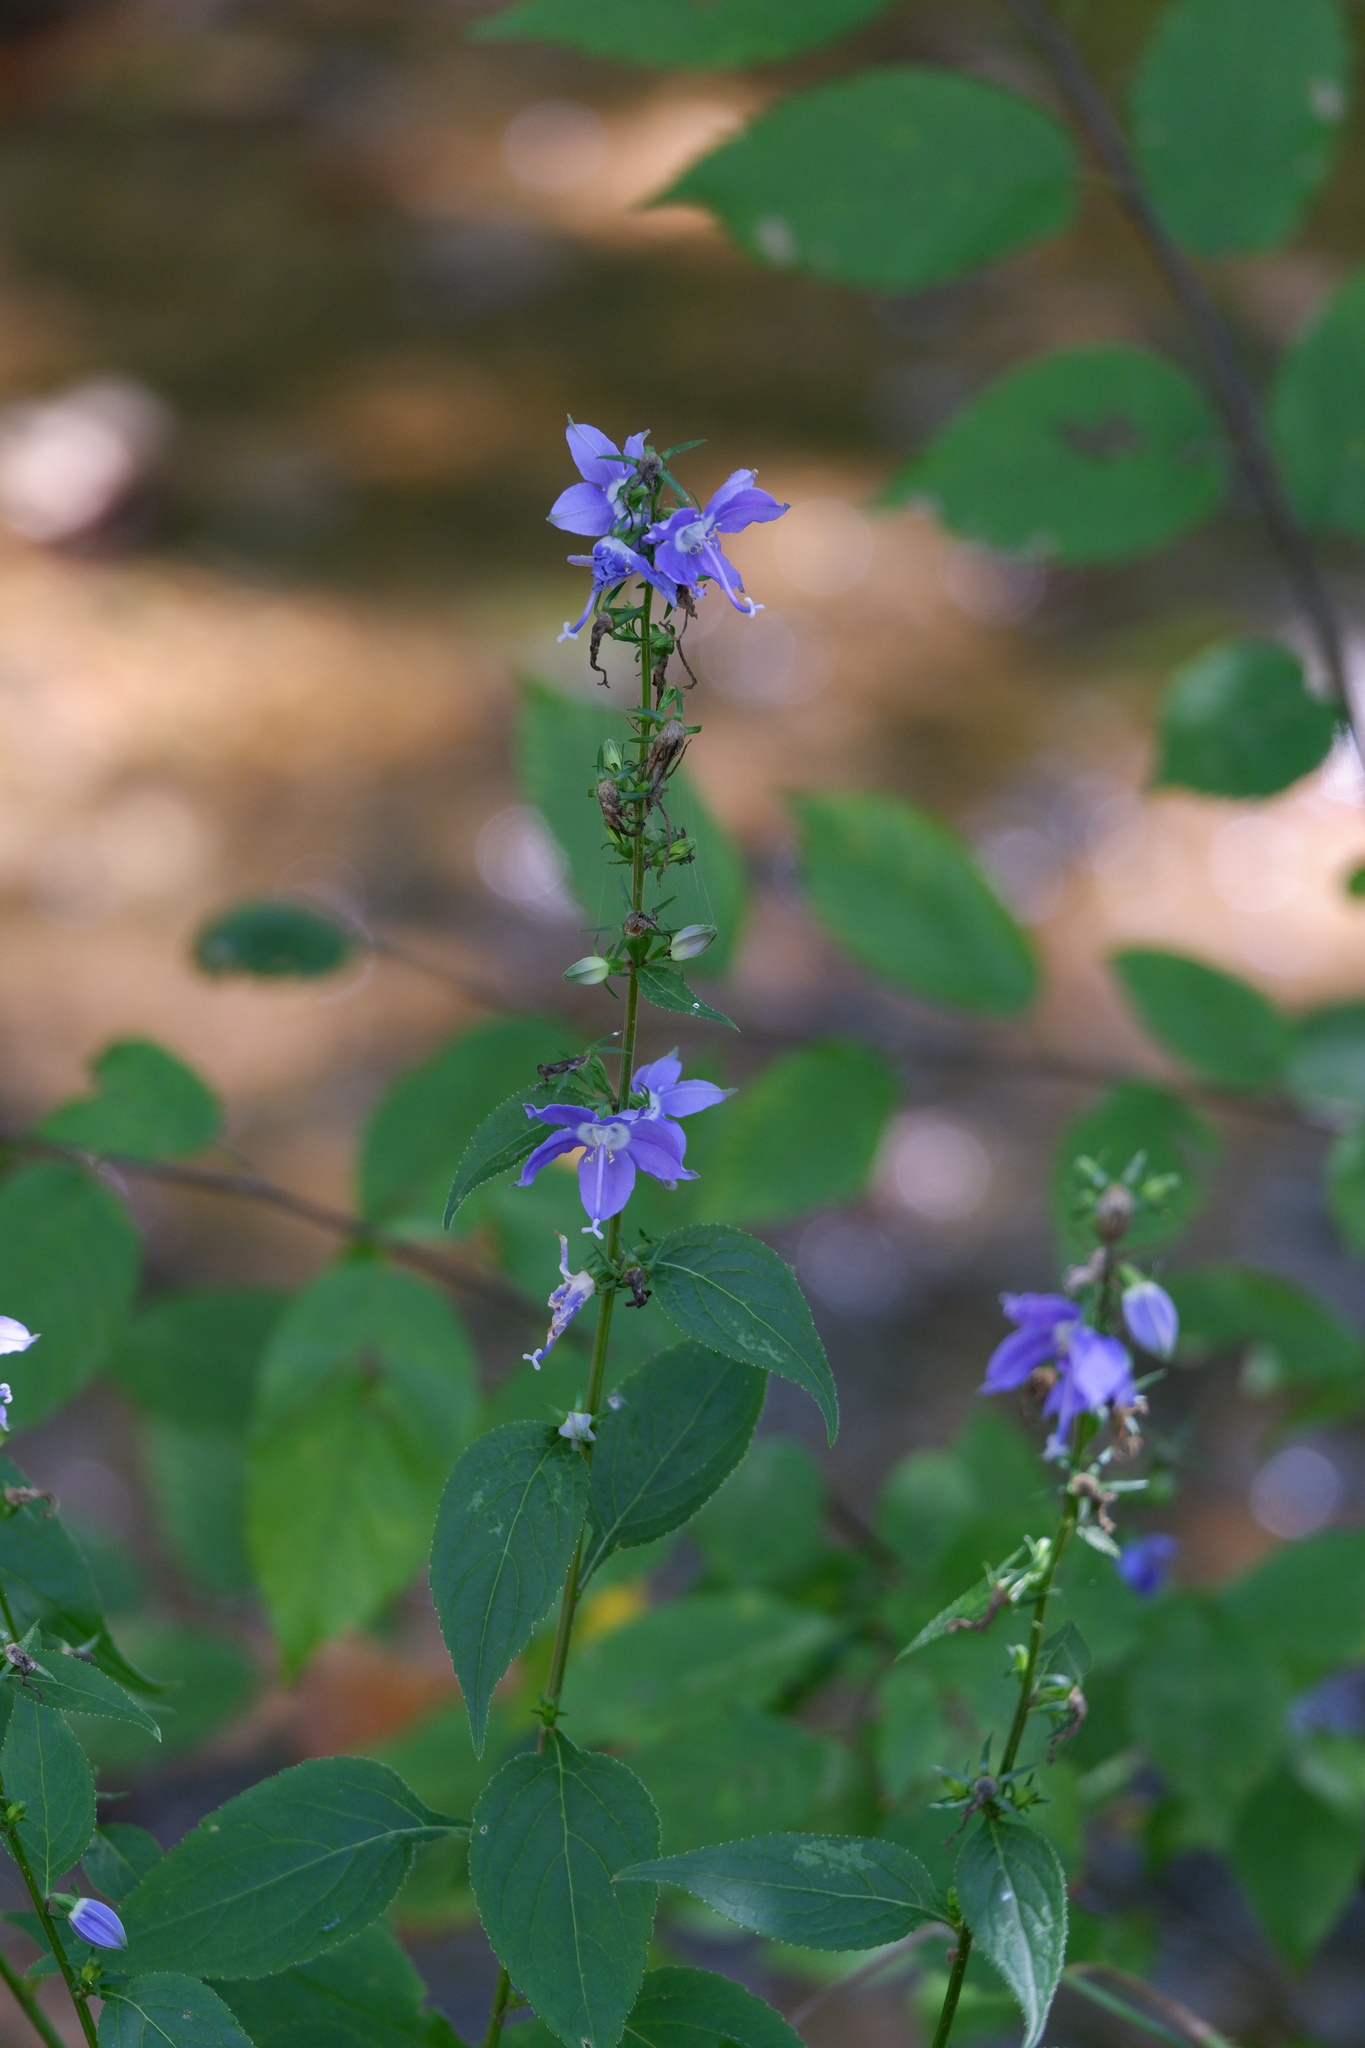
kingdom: Plantae
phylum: Tracheophyta
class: Magnoliopsida
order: Asterales
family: Campanulaceae
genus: Campanulastrum
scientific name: Campanulastrum americanum
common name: American bellflower
